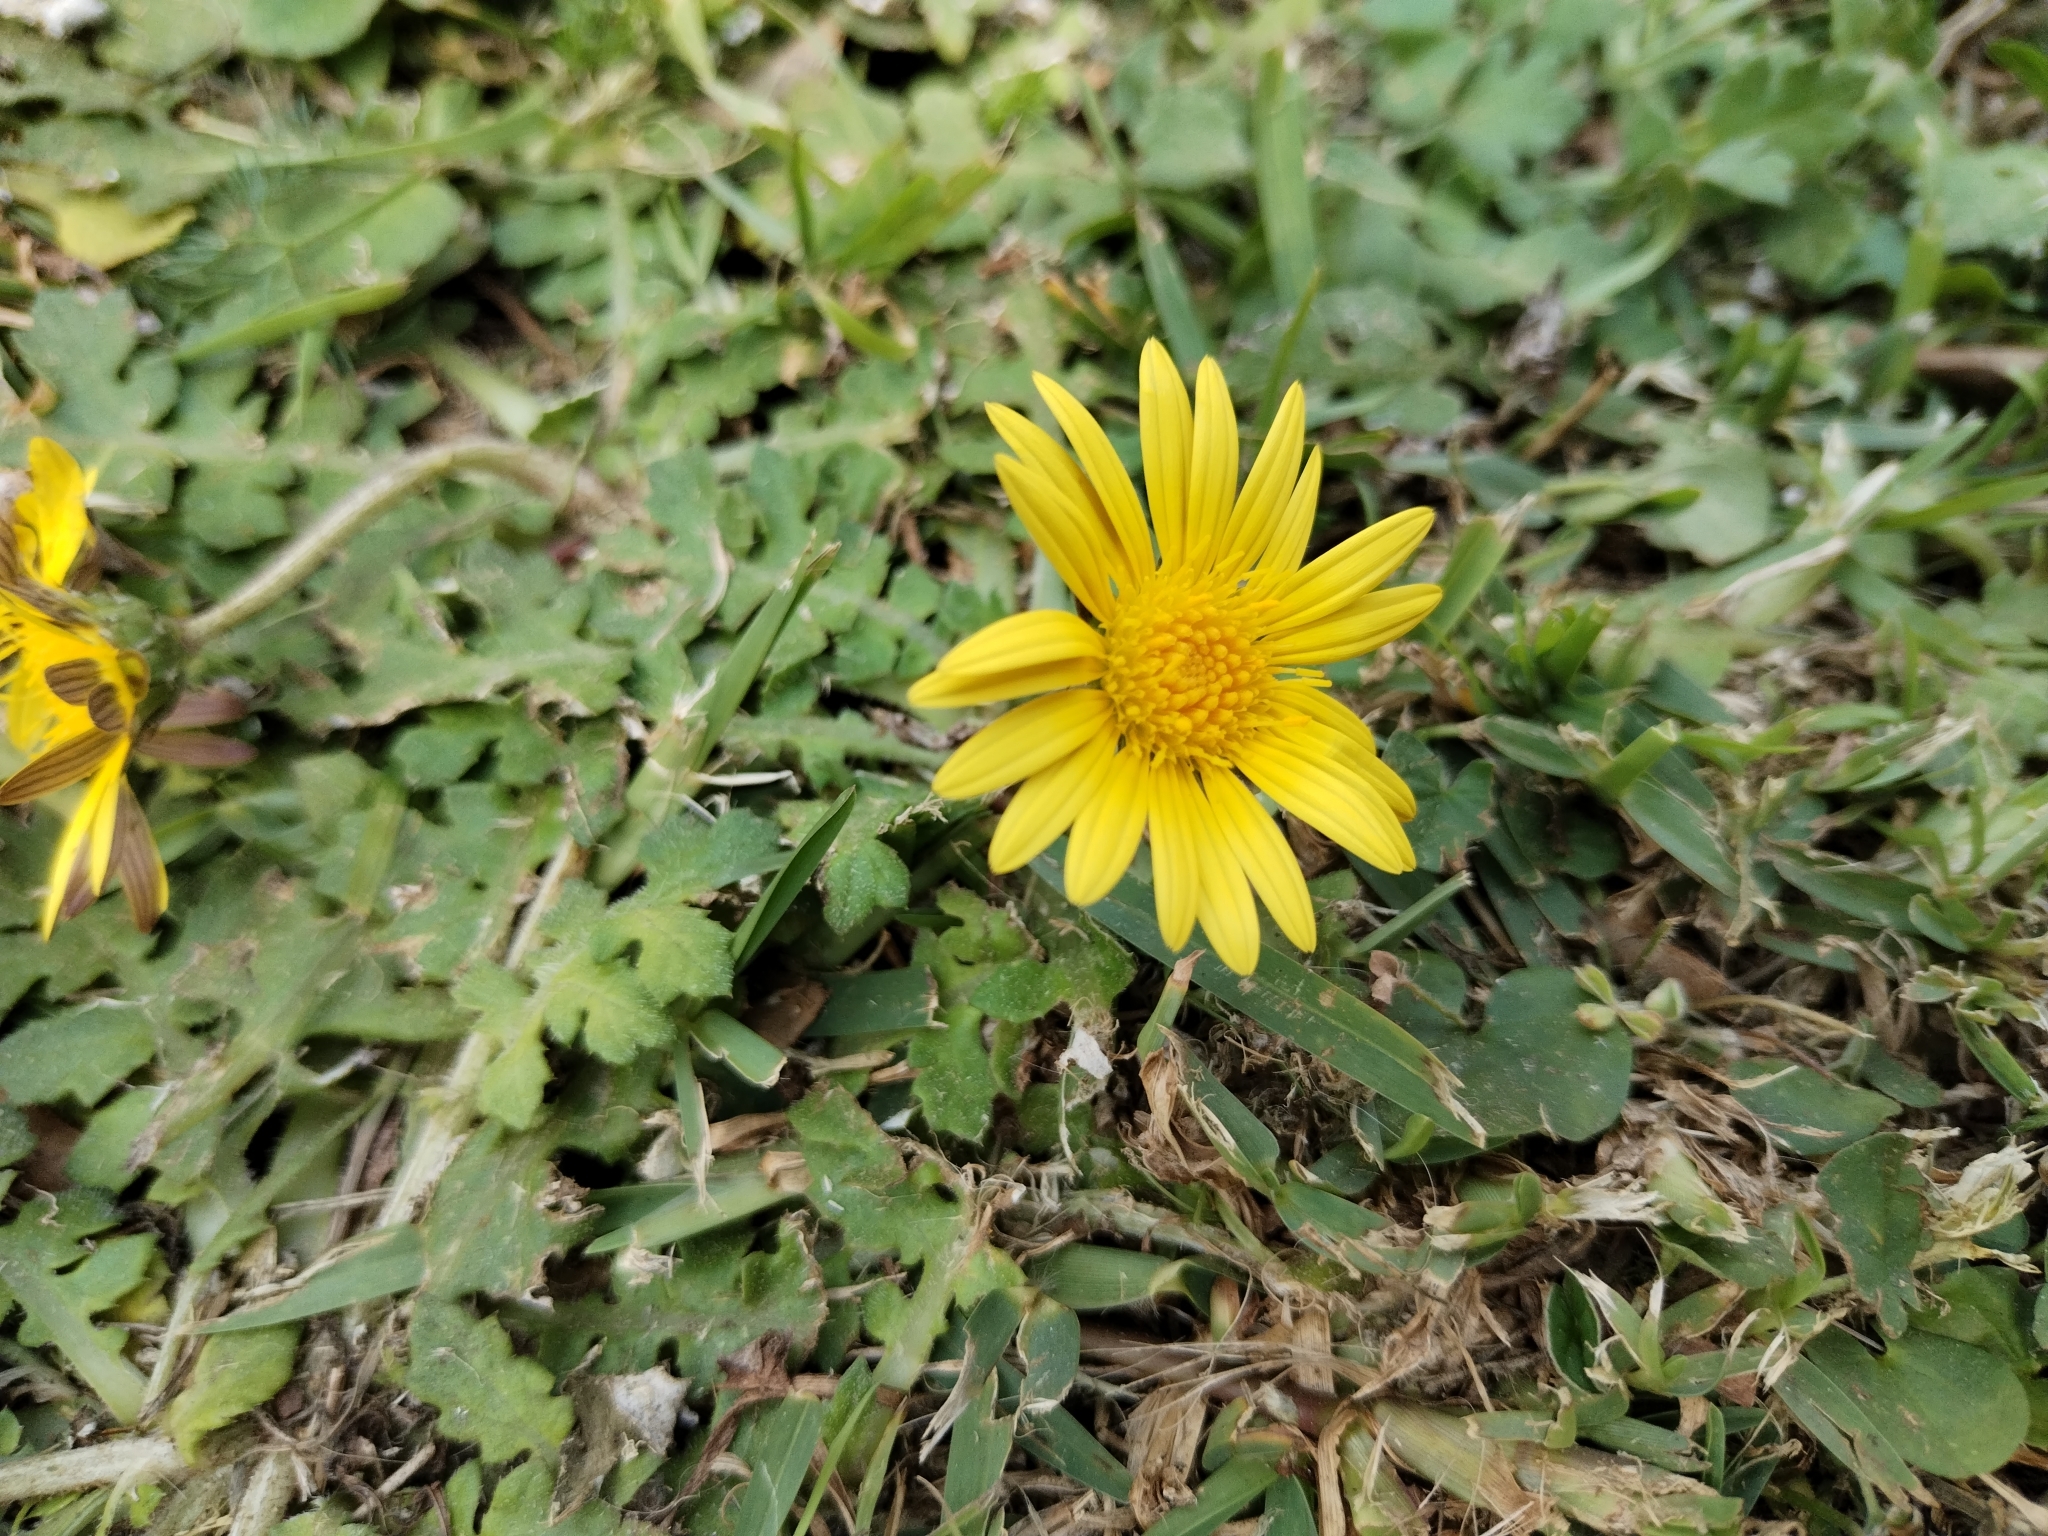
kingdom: Plantae
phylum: Tracheophyta
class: Magnoliopsida
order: Asterales
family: Asteraceae
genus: Arctotheca
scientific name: Arctotheca prostrata
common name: Capeweed
